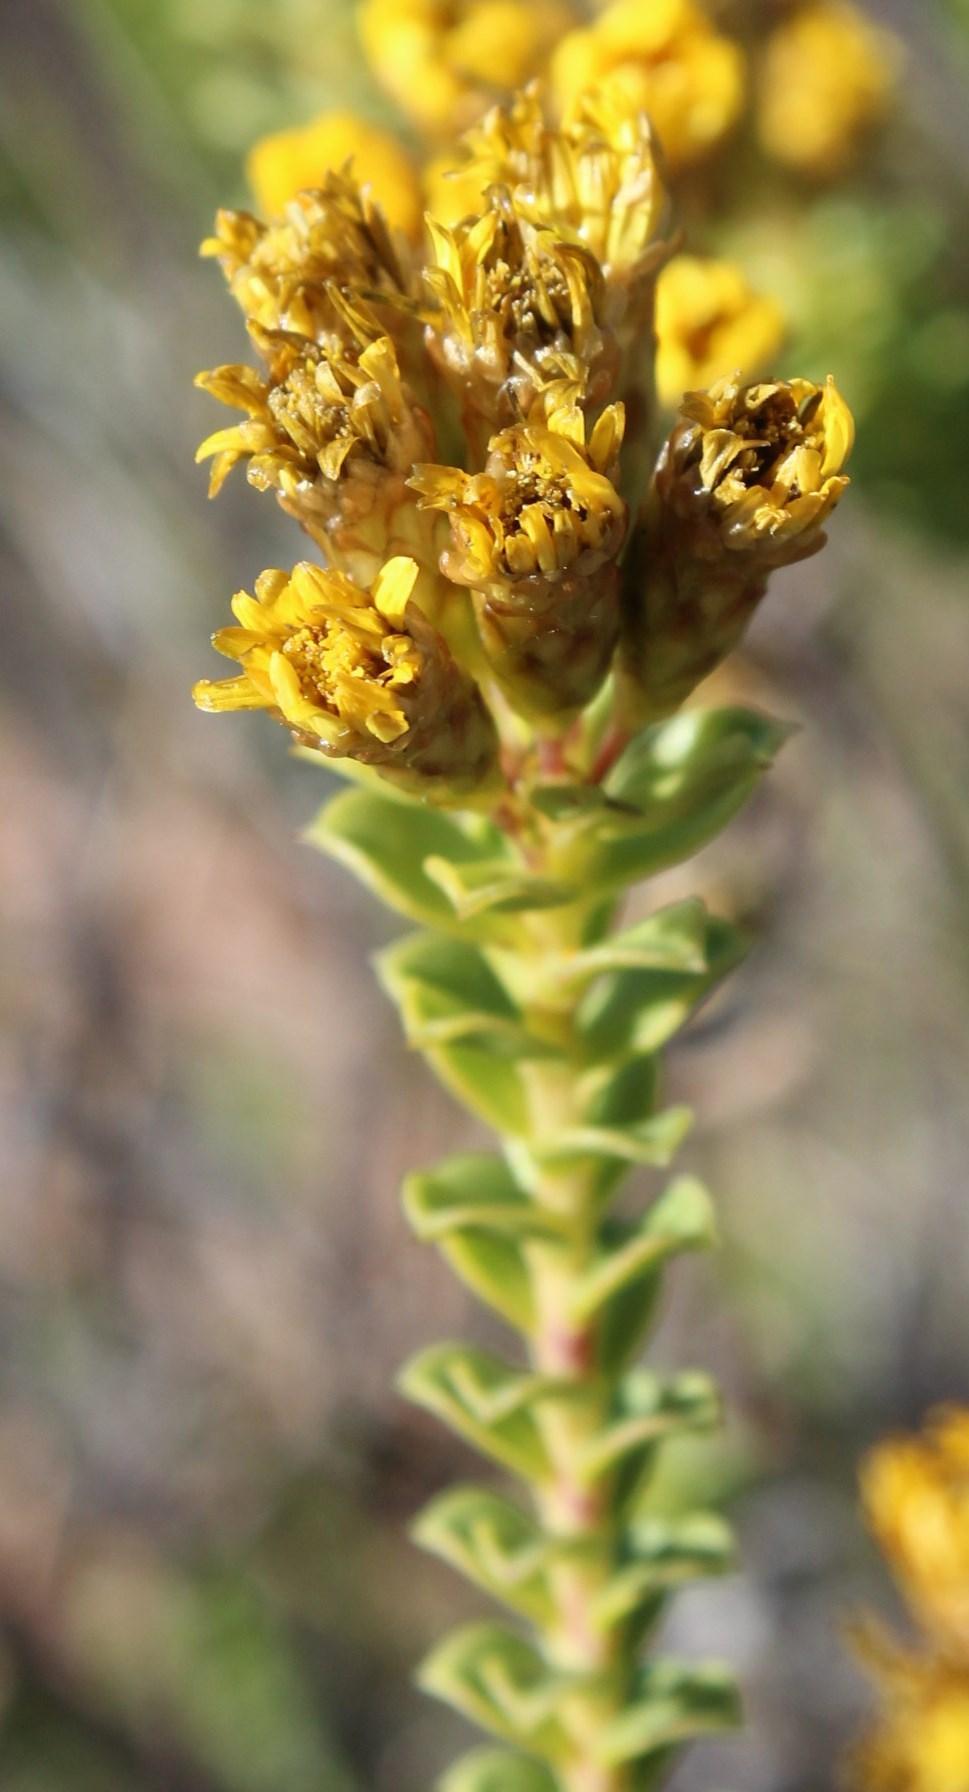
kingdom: Plantae
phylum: Tracheophyta
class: Magnoliopsida
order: Asterales
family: Asteraceae
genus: Oedera
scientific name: Oedera squarrosa
